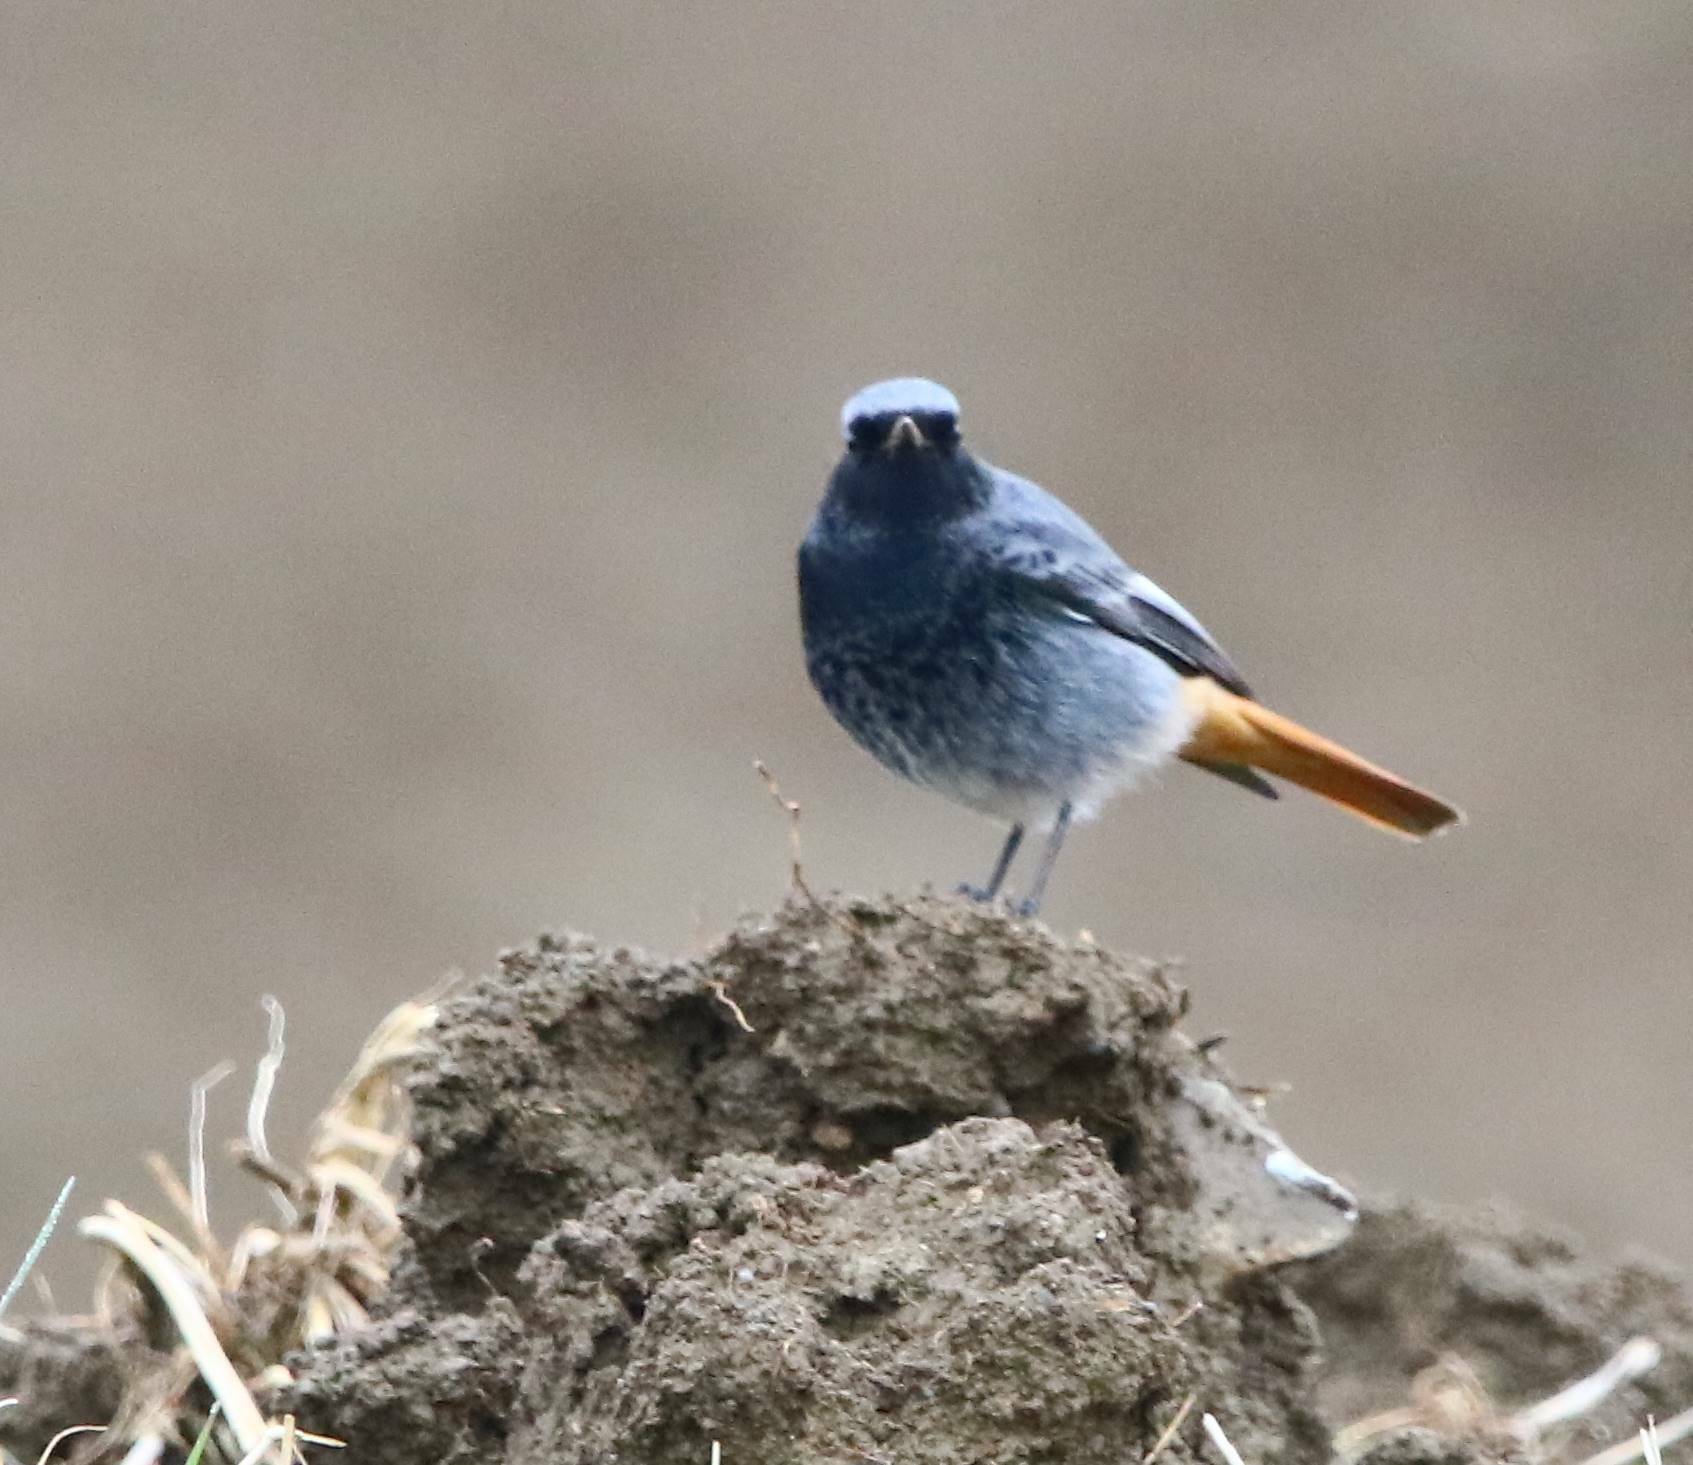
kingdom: Animalia
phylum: Chordata
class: Aves
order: Passeriformes
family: Muscicapidae
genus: Phoenicurus
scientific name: Phoenicurus ochruros
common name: Black redstart
